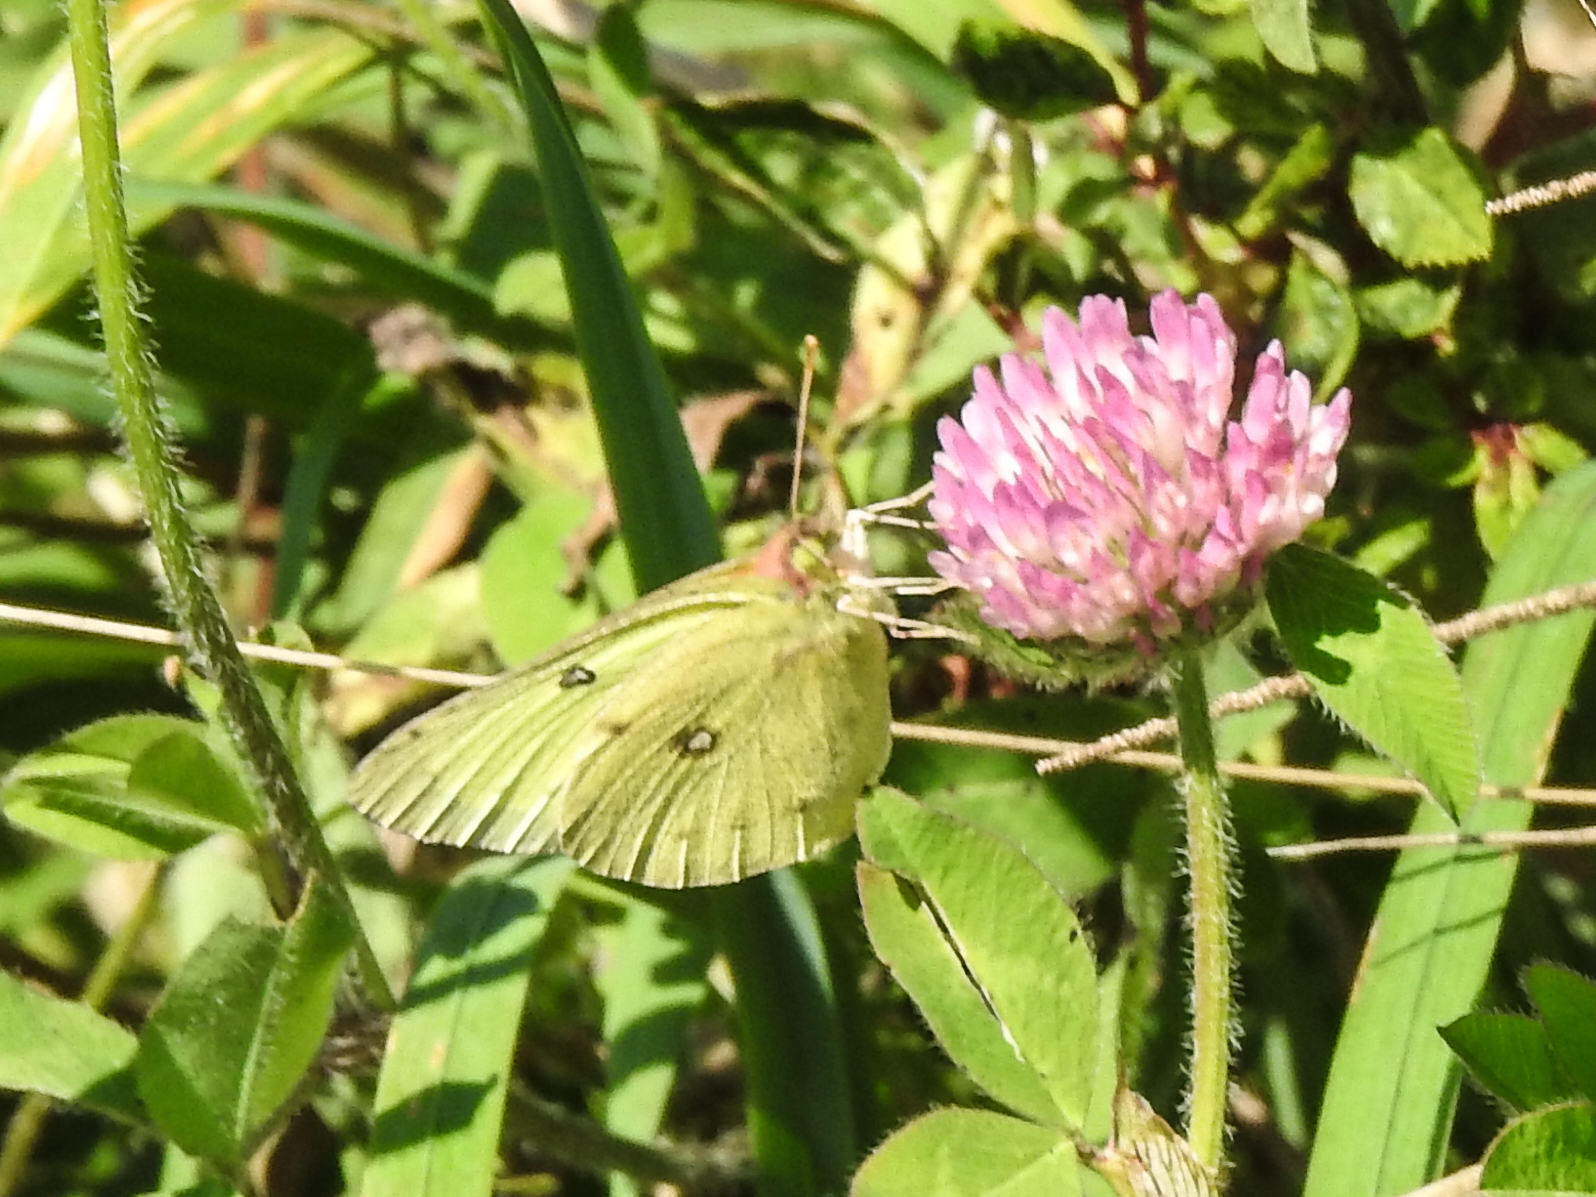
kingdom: Animalia
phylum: Arthropoda
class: Insecta
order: Lepidoptera
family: Pieridae
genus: Colias
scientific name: Colias philodice
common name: Clouded sulphur
